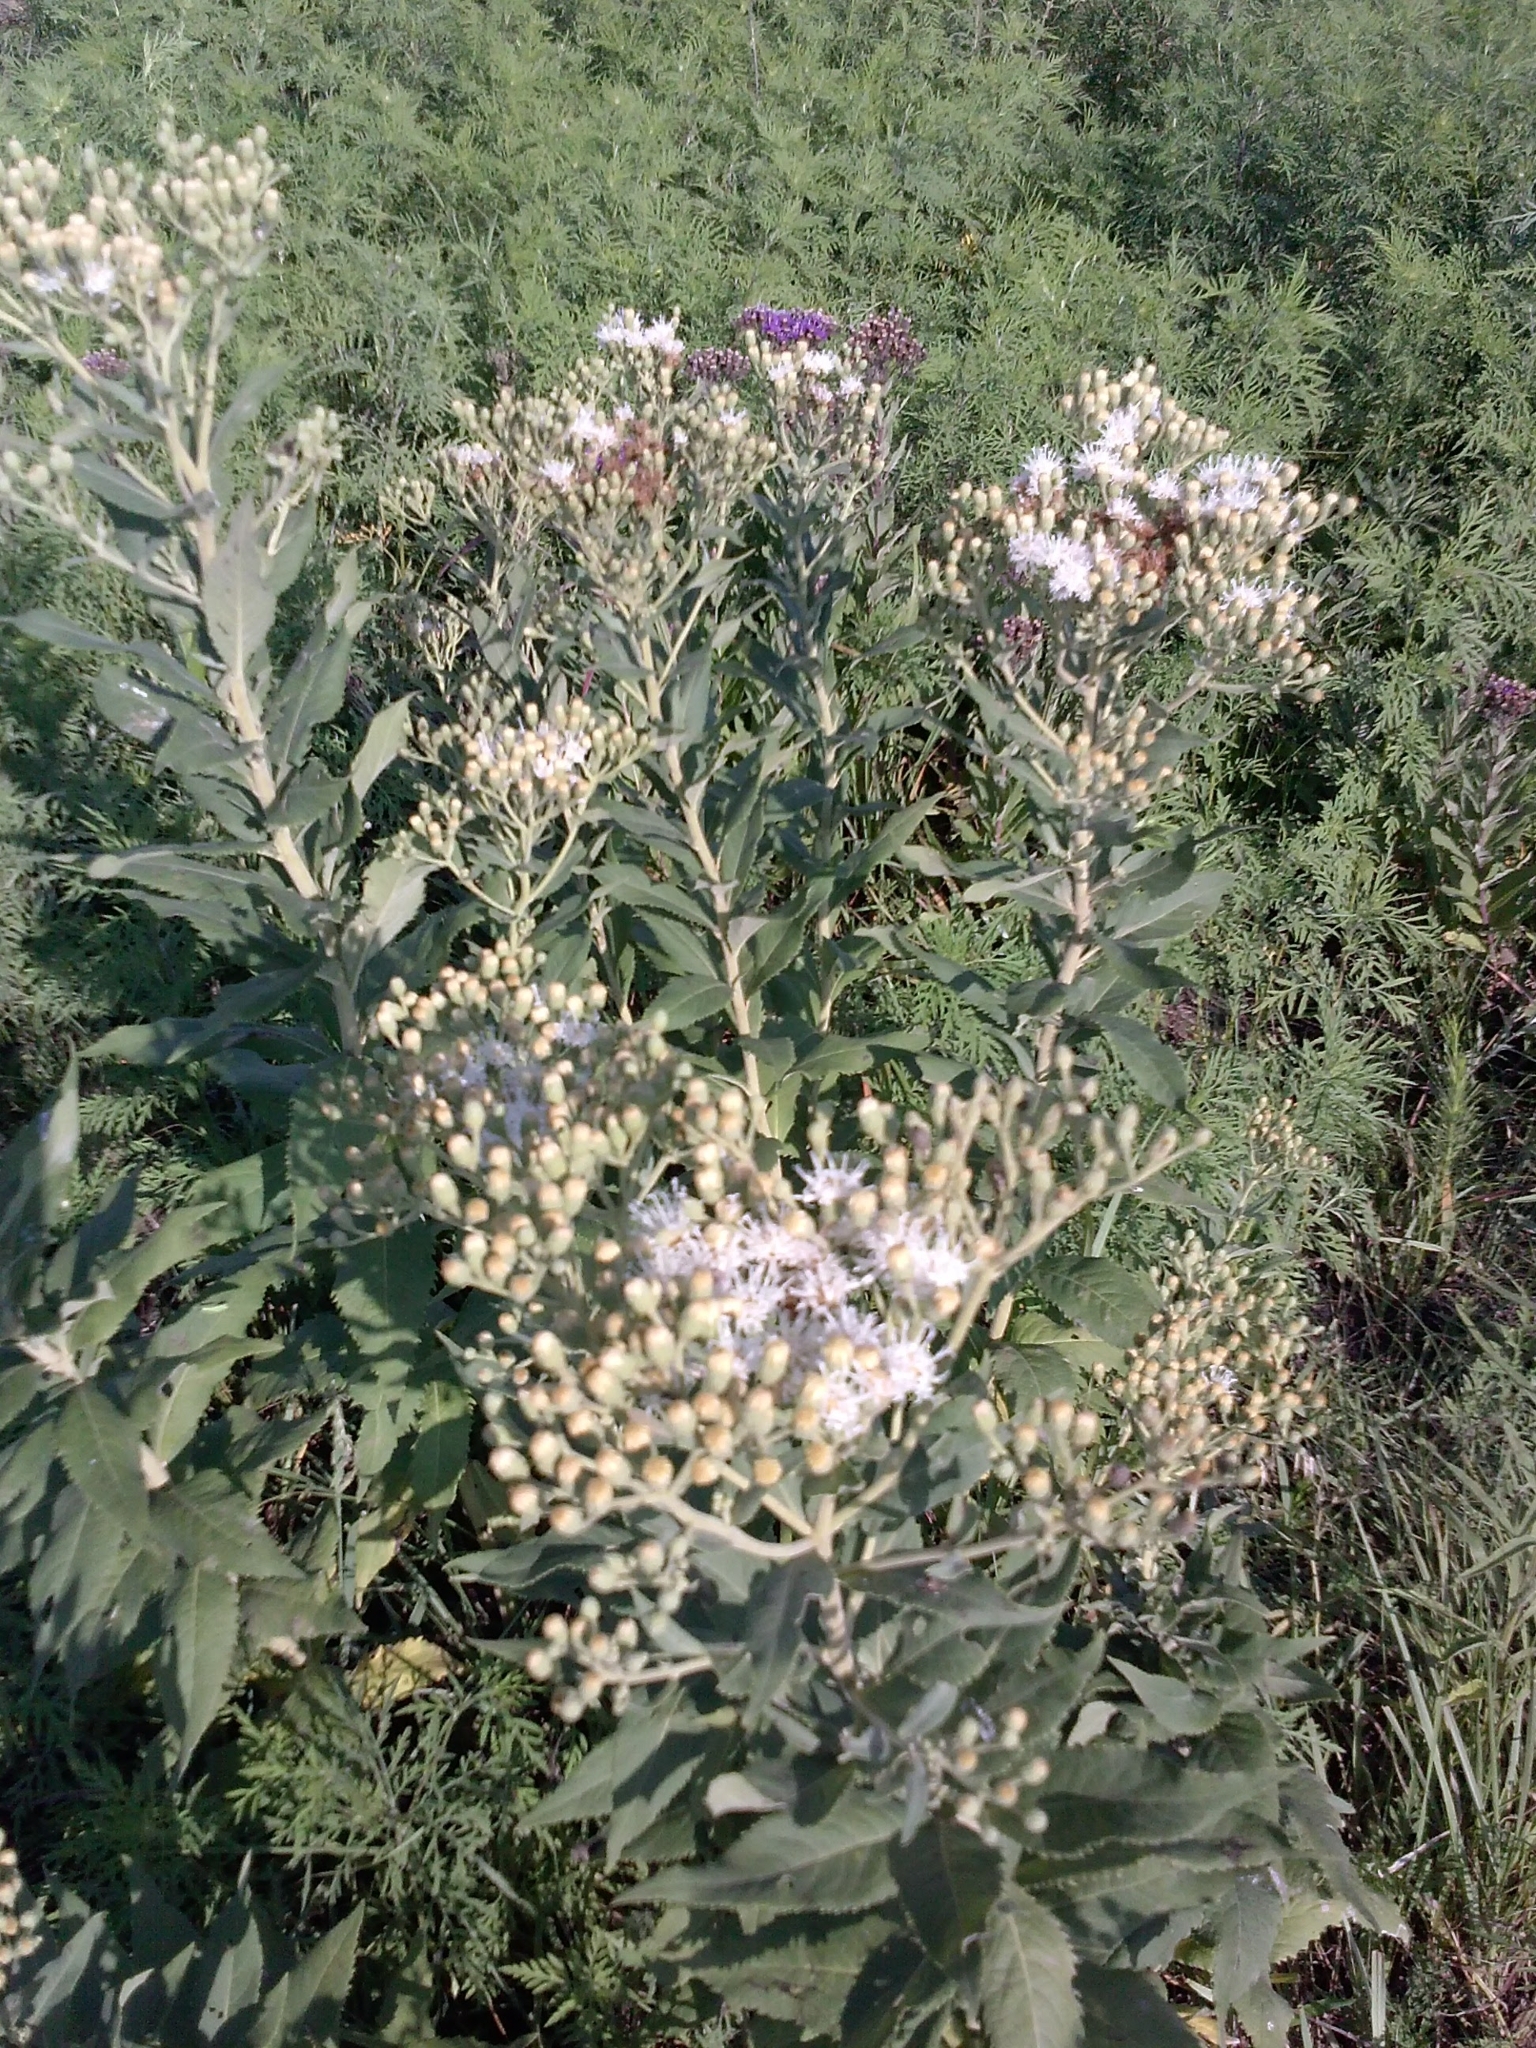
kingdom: Plantae
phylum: Tracheophyta
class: Magnoliopsida
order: Asterales
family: Asteraceae
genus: Vernonia
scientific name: Vernonia baldwinii
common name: Western ironweed
